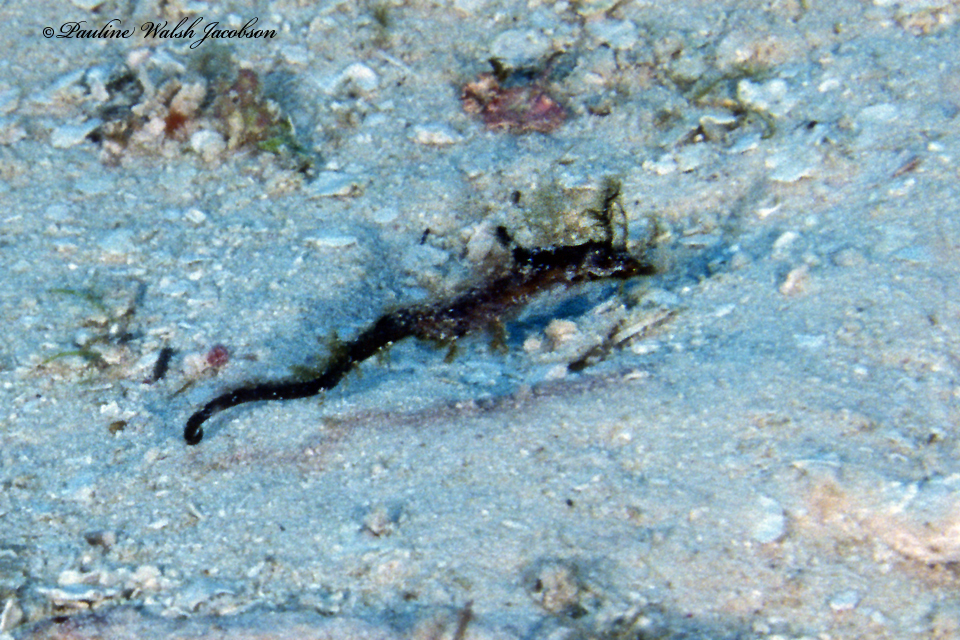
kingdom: Animalia
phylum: Chordata
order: Syngnathiformes
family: Syngnathidae
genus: Amphelikturus
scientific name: Amphelikturus dendriticus
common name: Seahorse pipefish
